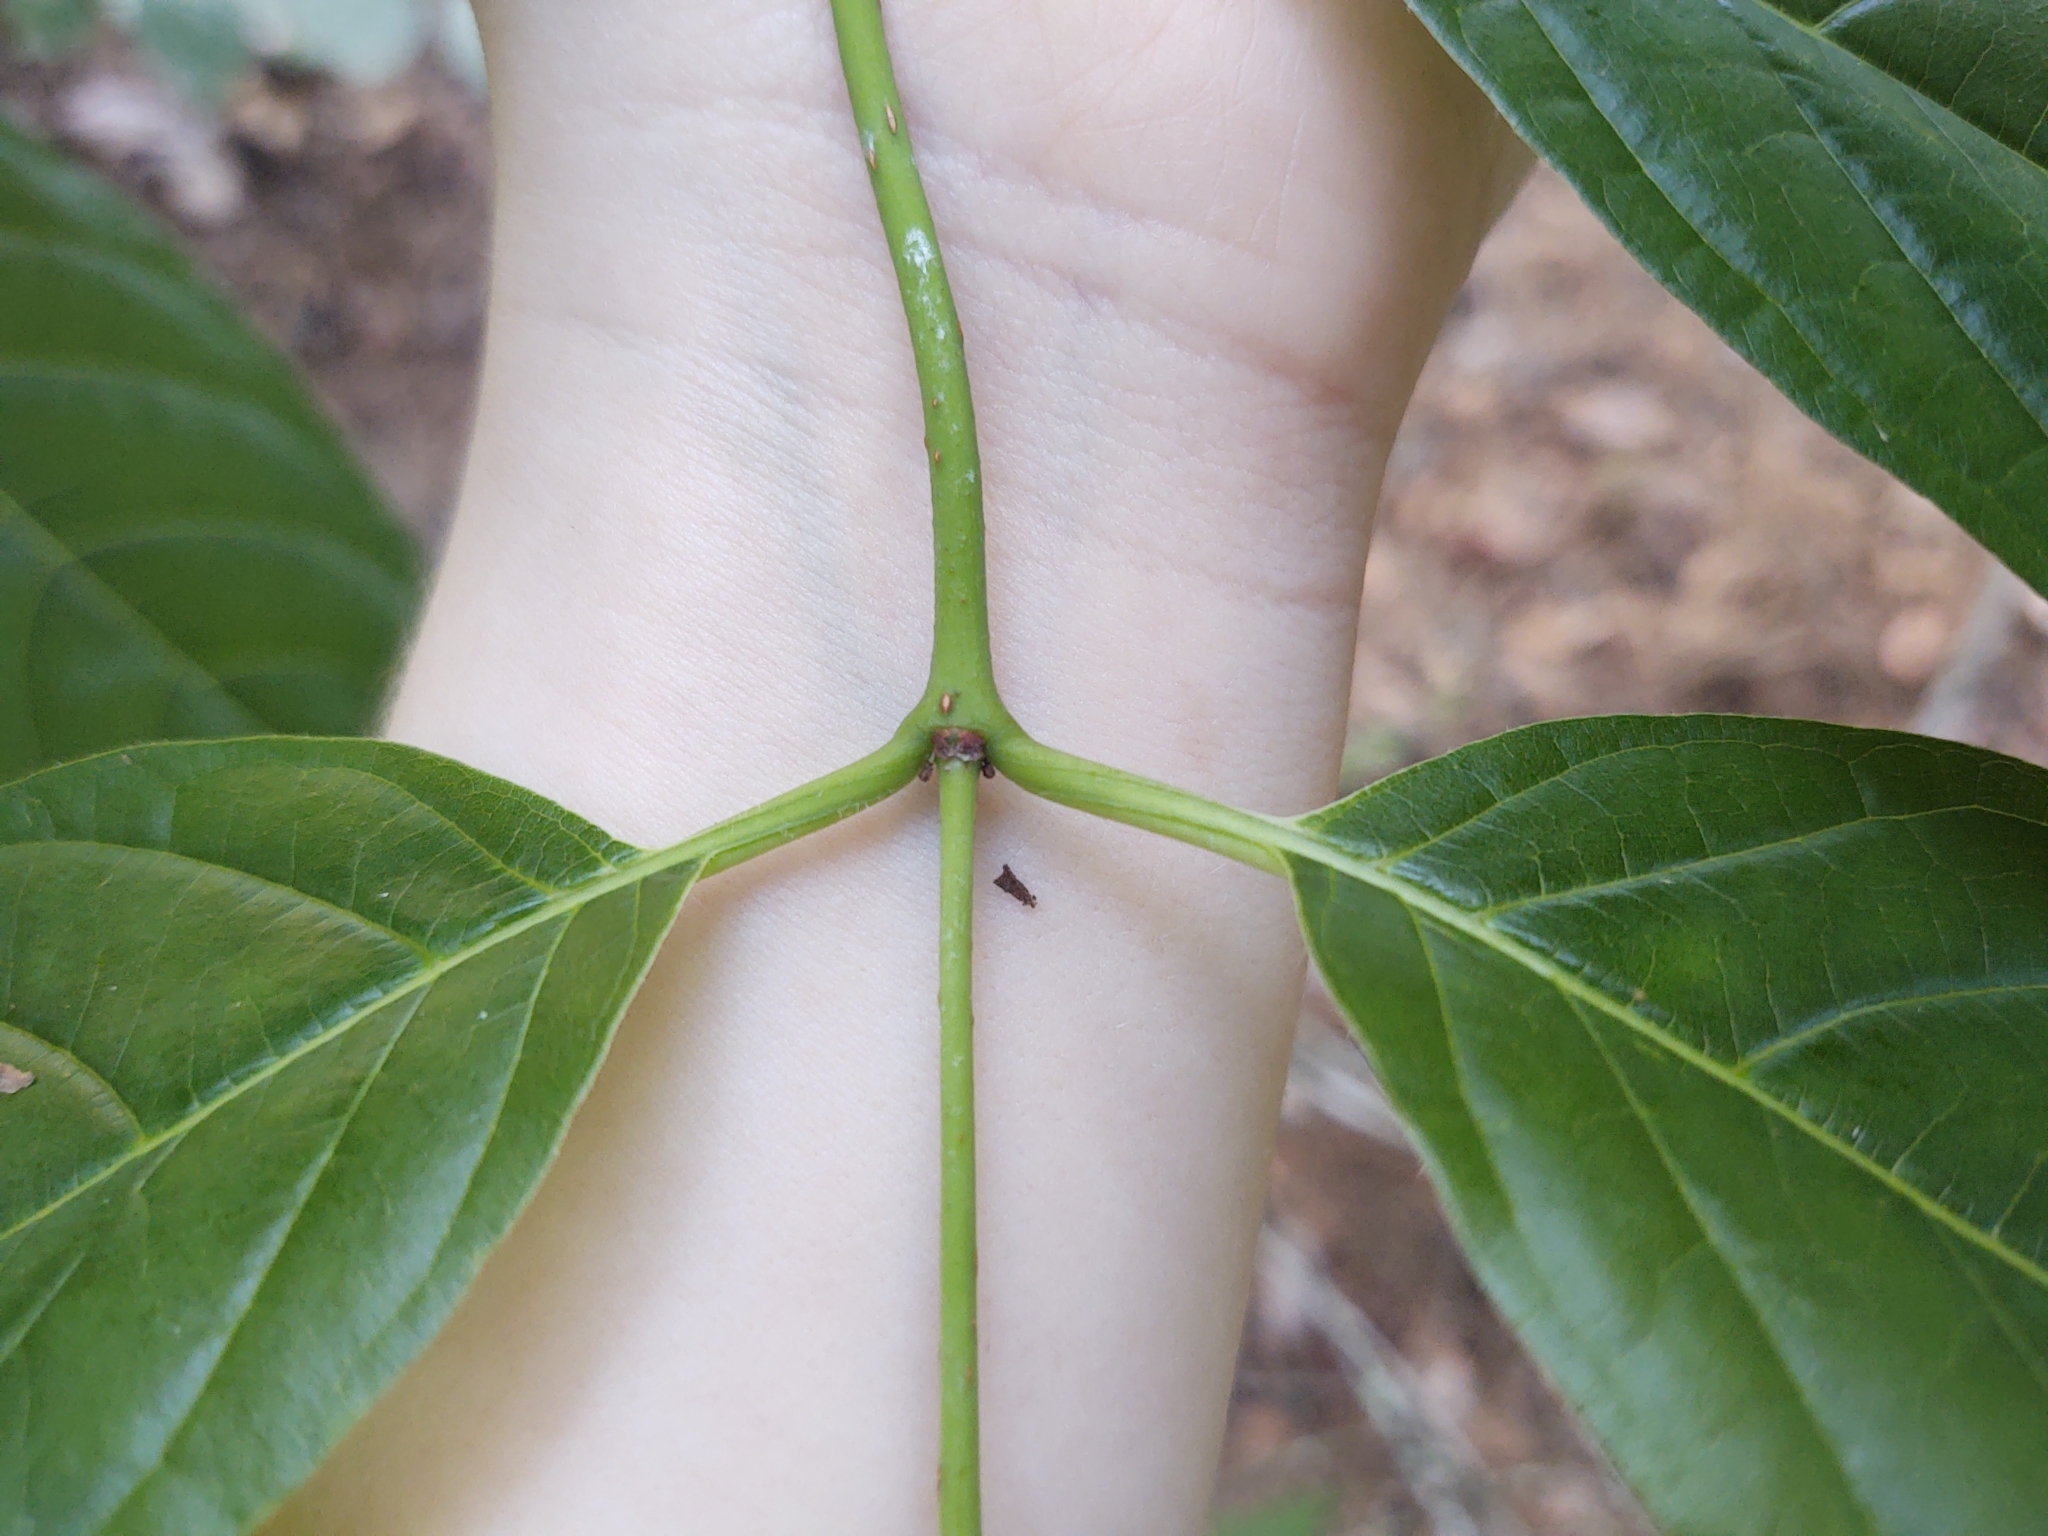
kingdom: Plantae
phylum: Tracheophyta
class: Magnoliopsida
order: Gentianales
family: Rubiaceae
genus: Cephalanthus
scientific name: Cephalanthus occidentalis
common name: Button-willow
